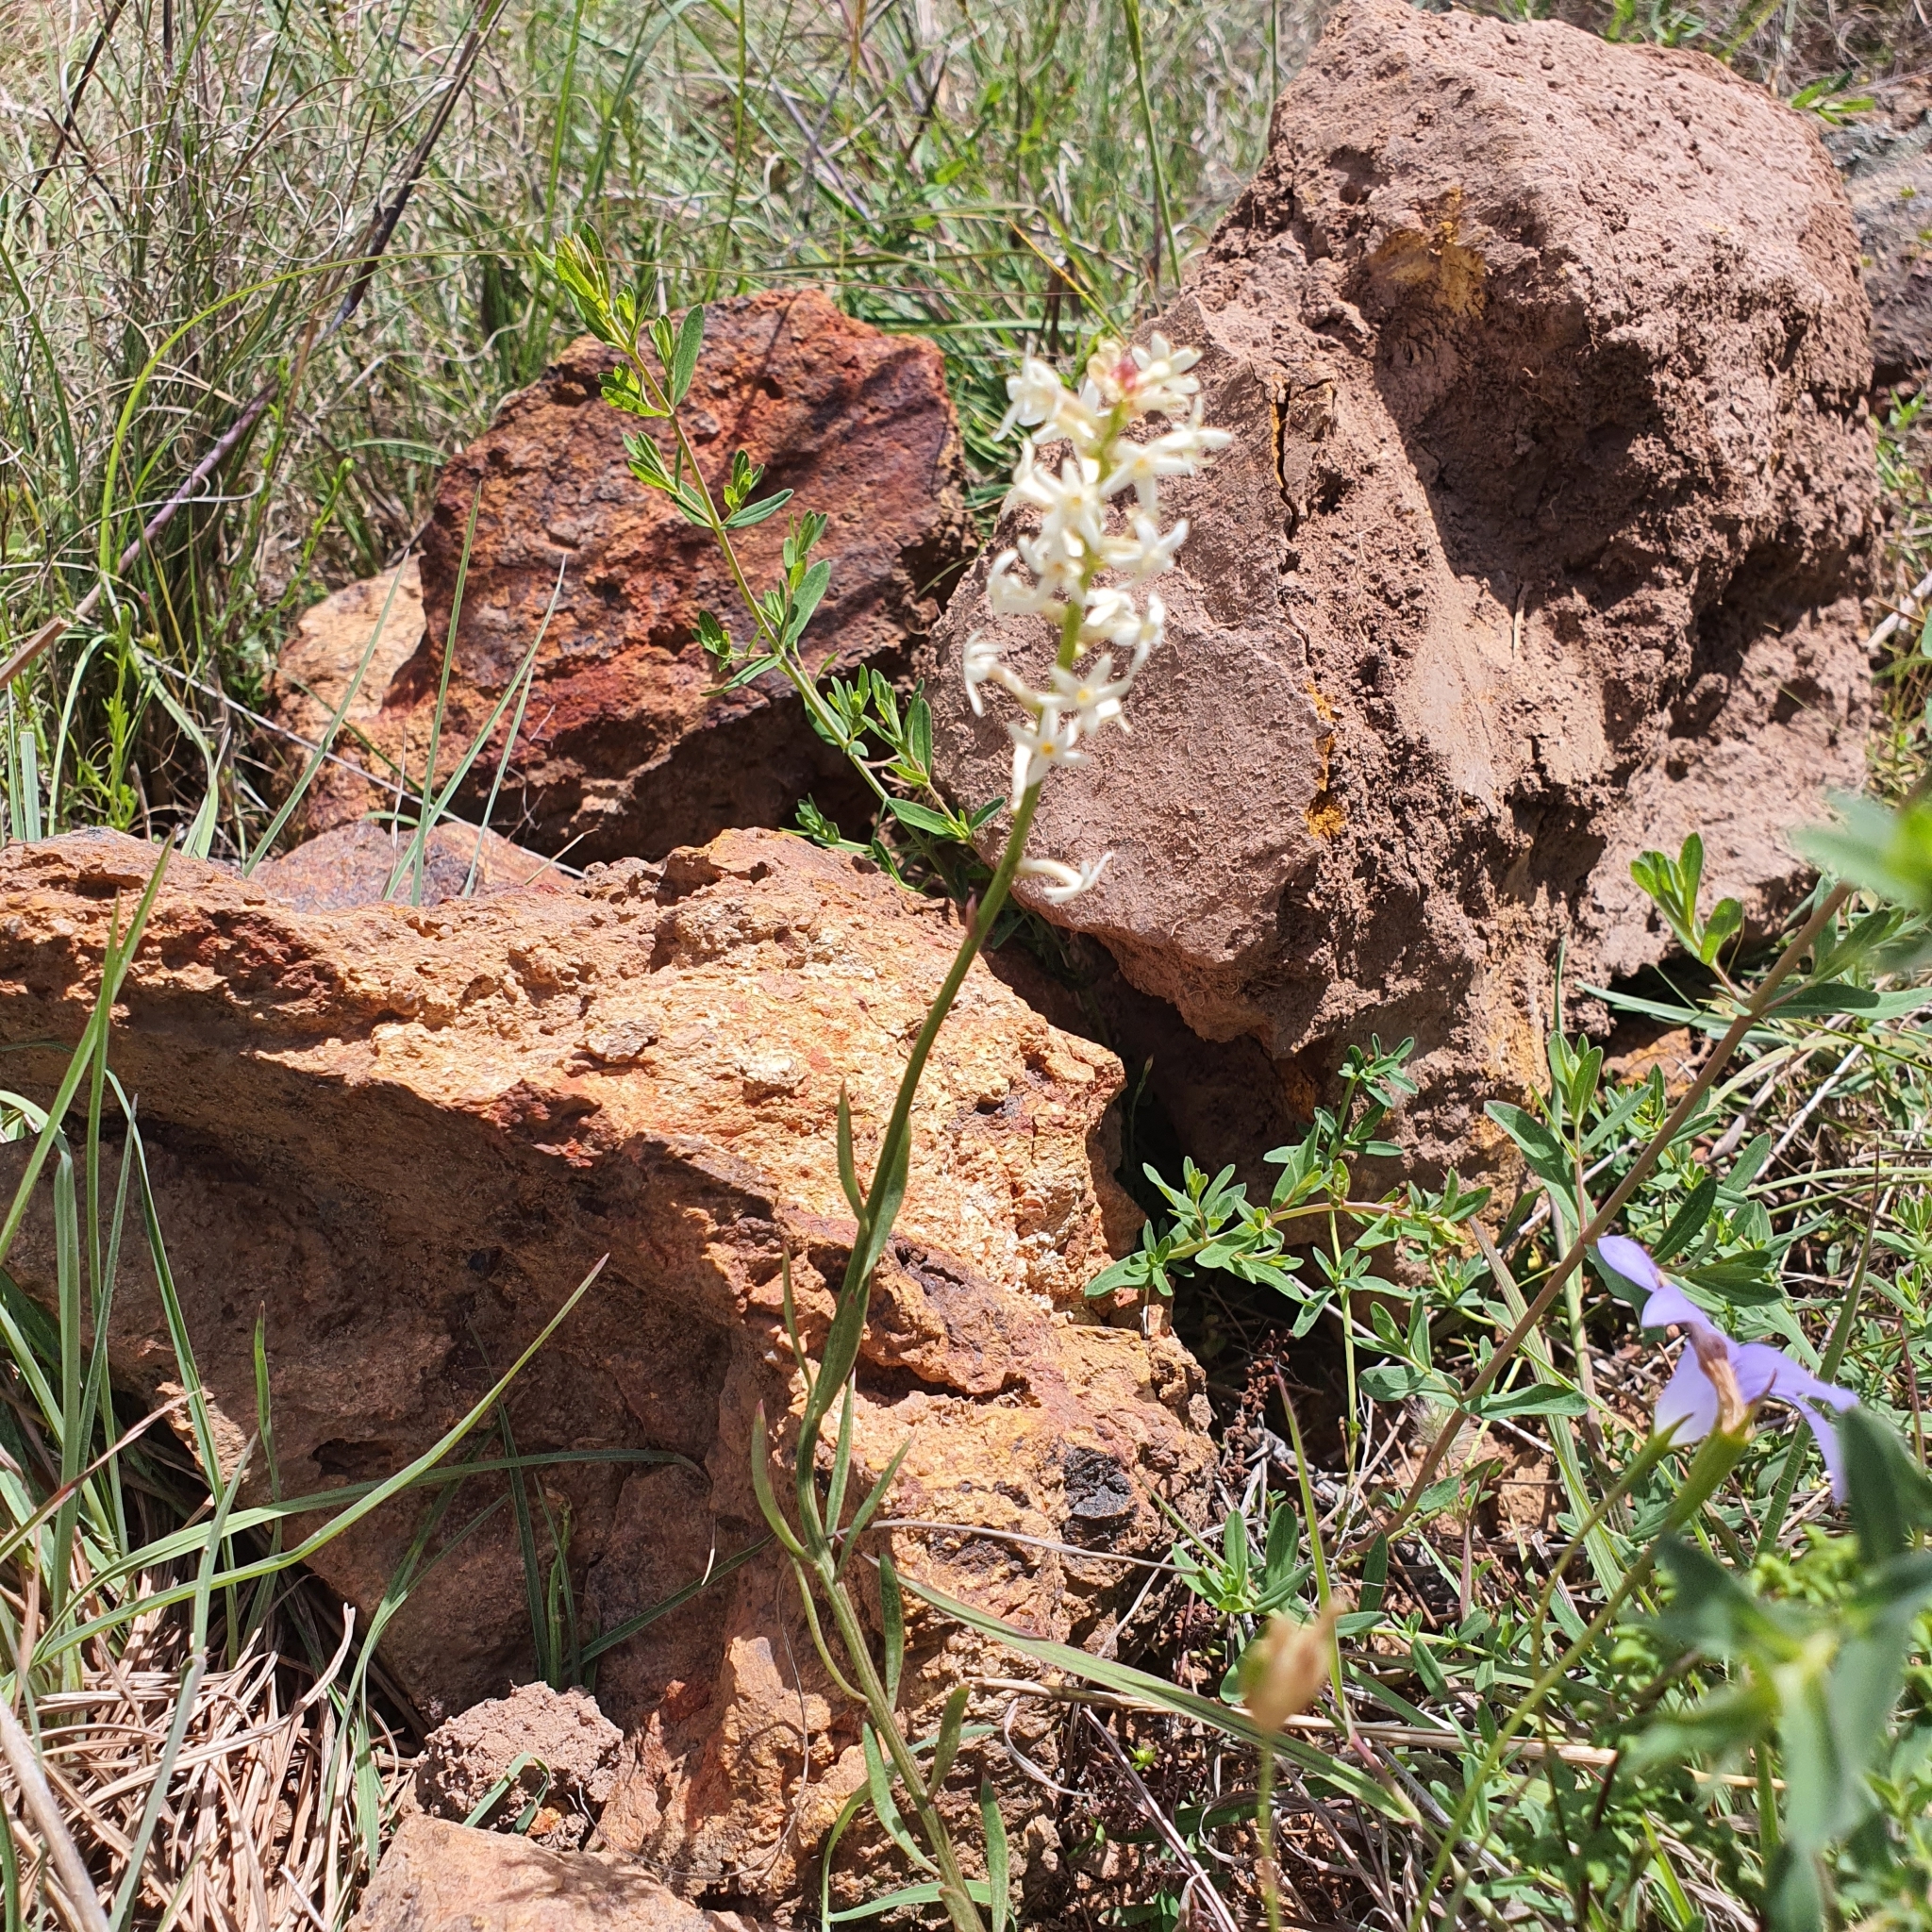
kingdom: Plantae
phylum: Tracheophyta
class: Magnoliopsida
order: Celastrales
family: Celastraceae
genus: Stackhousia
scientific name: Stackhousia monogyna
